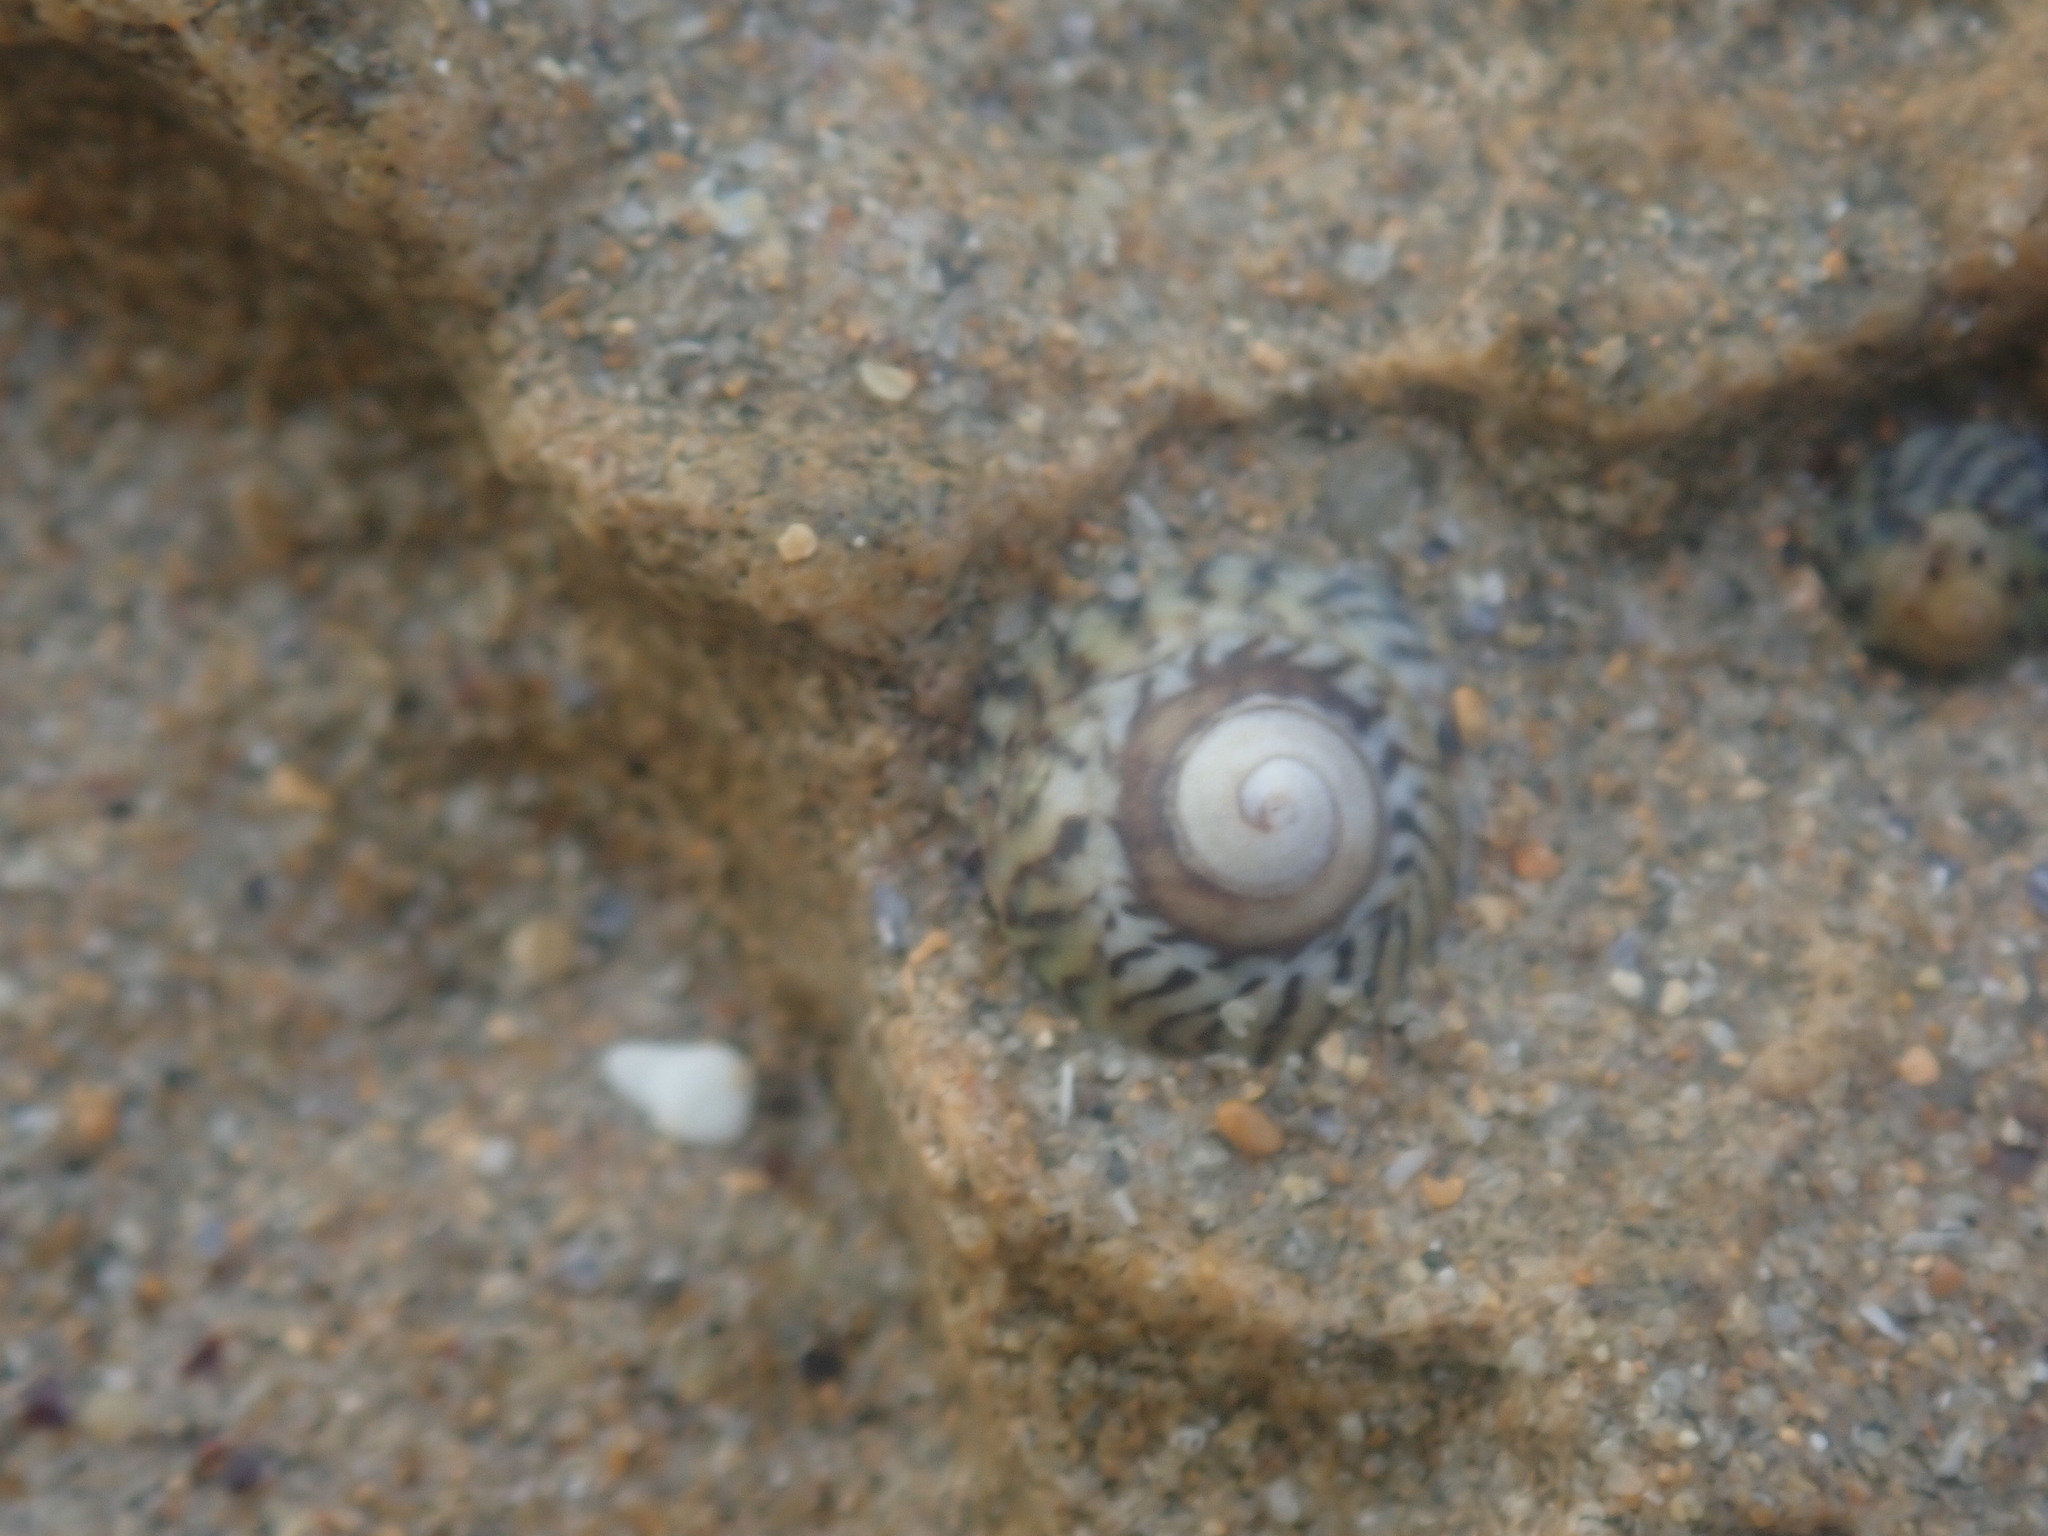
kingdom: Animalia
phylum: Mollusca
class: Gastropoda
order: Littorinimorpha
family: Littorinidae
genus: Bembicium
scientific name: Bembicium nanum
